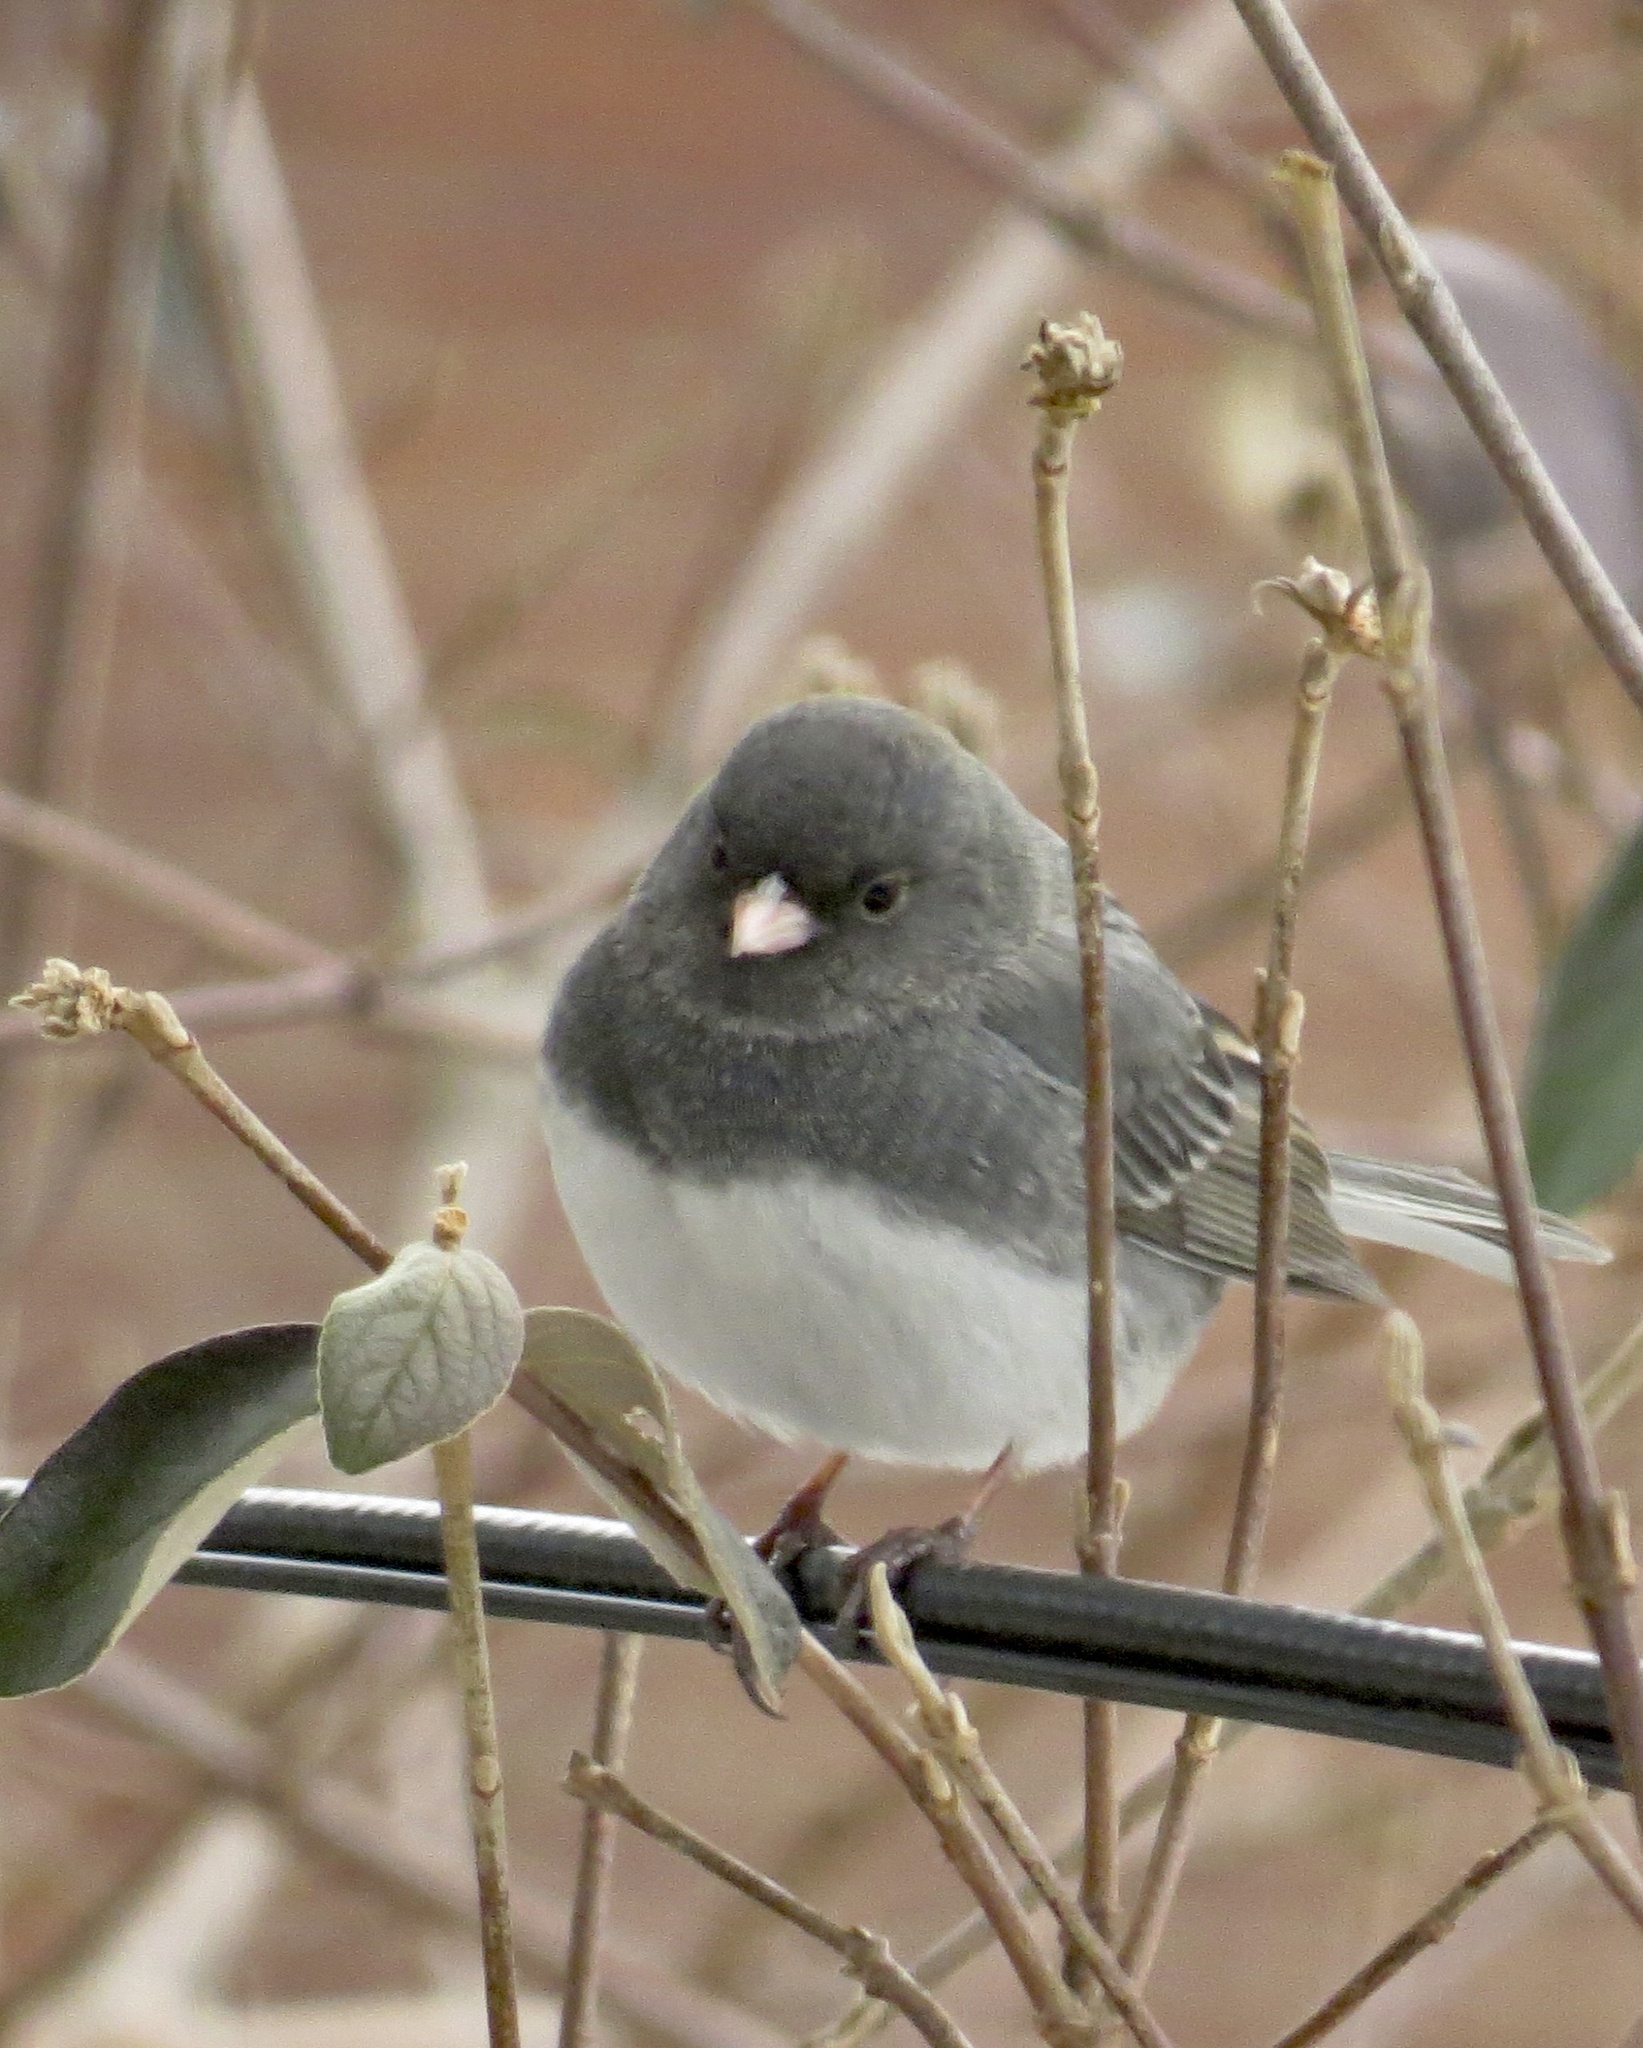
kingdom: Animalia
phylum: Chordata
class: Aves
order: Passeriformes
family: Passerellidae
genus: Junco
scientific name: Junco hyemalis
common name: Dark-eyed junco
